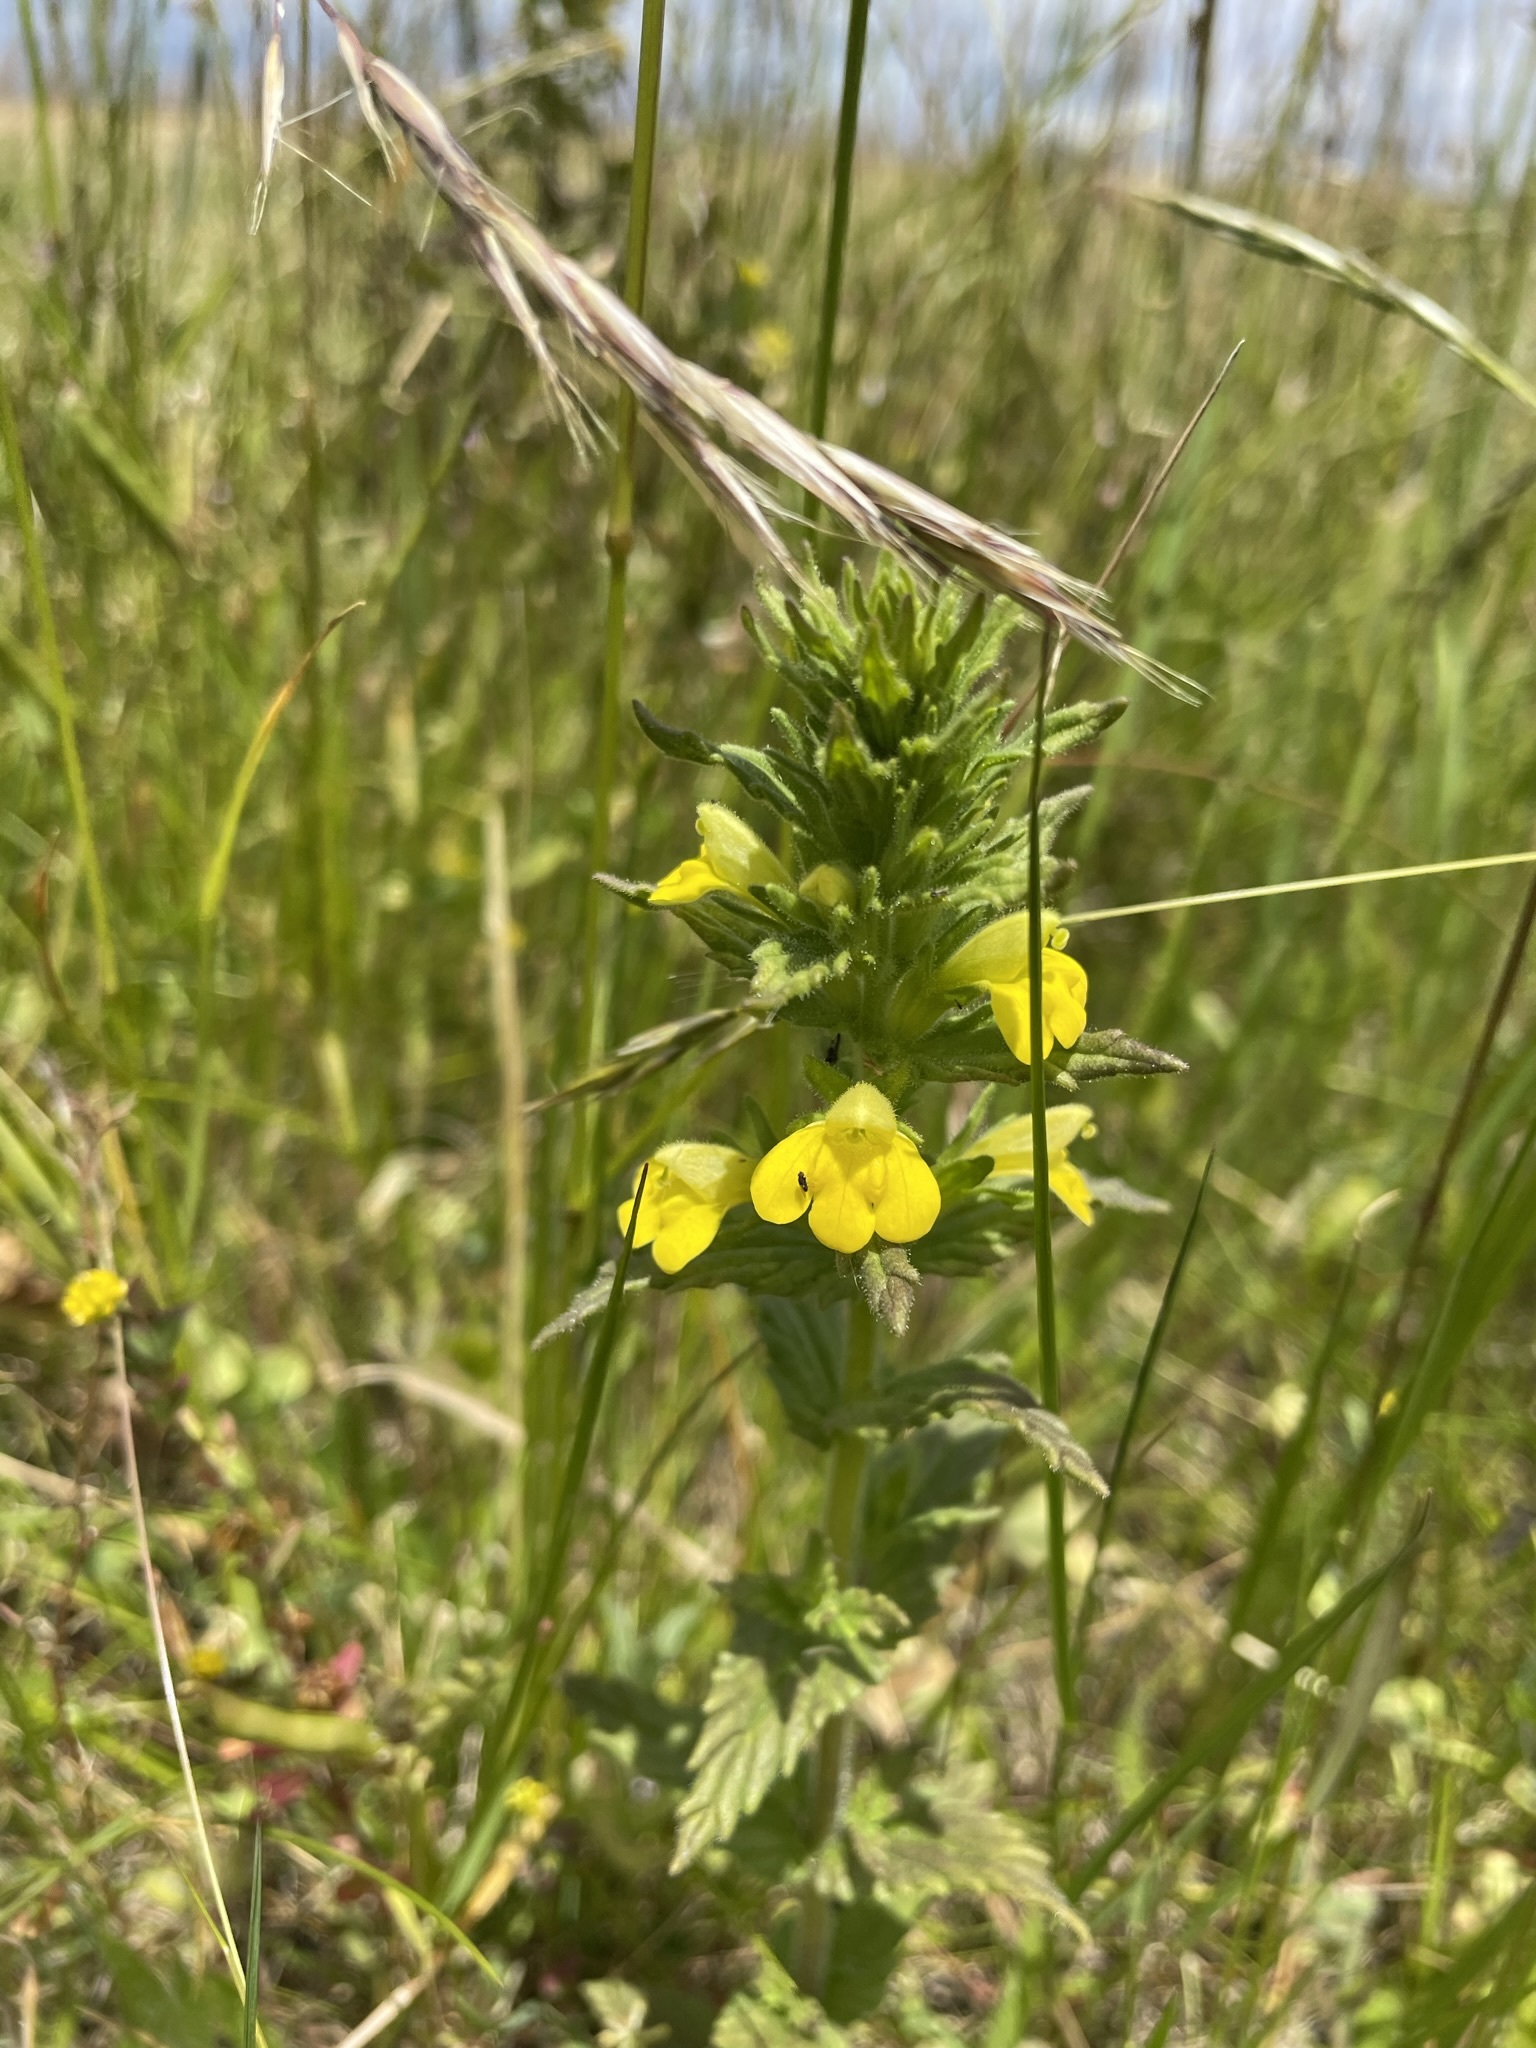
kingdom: Plantae
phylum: Tracheophyta
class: Magnoliopsida
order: Lamiales
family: Orobanchaceae
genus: Bellardia
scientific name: Bellardia viscosa
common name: Sticky parentucellia
